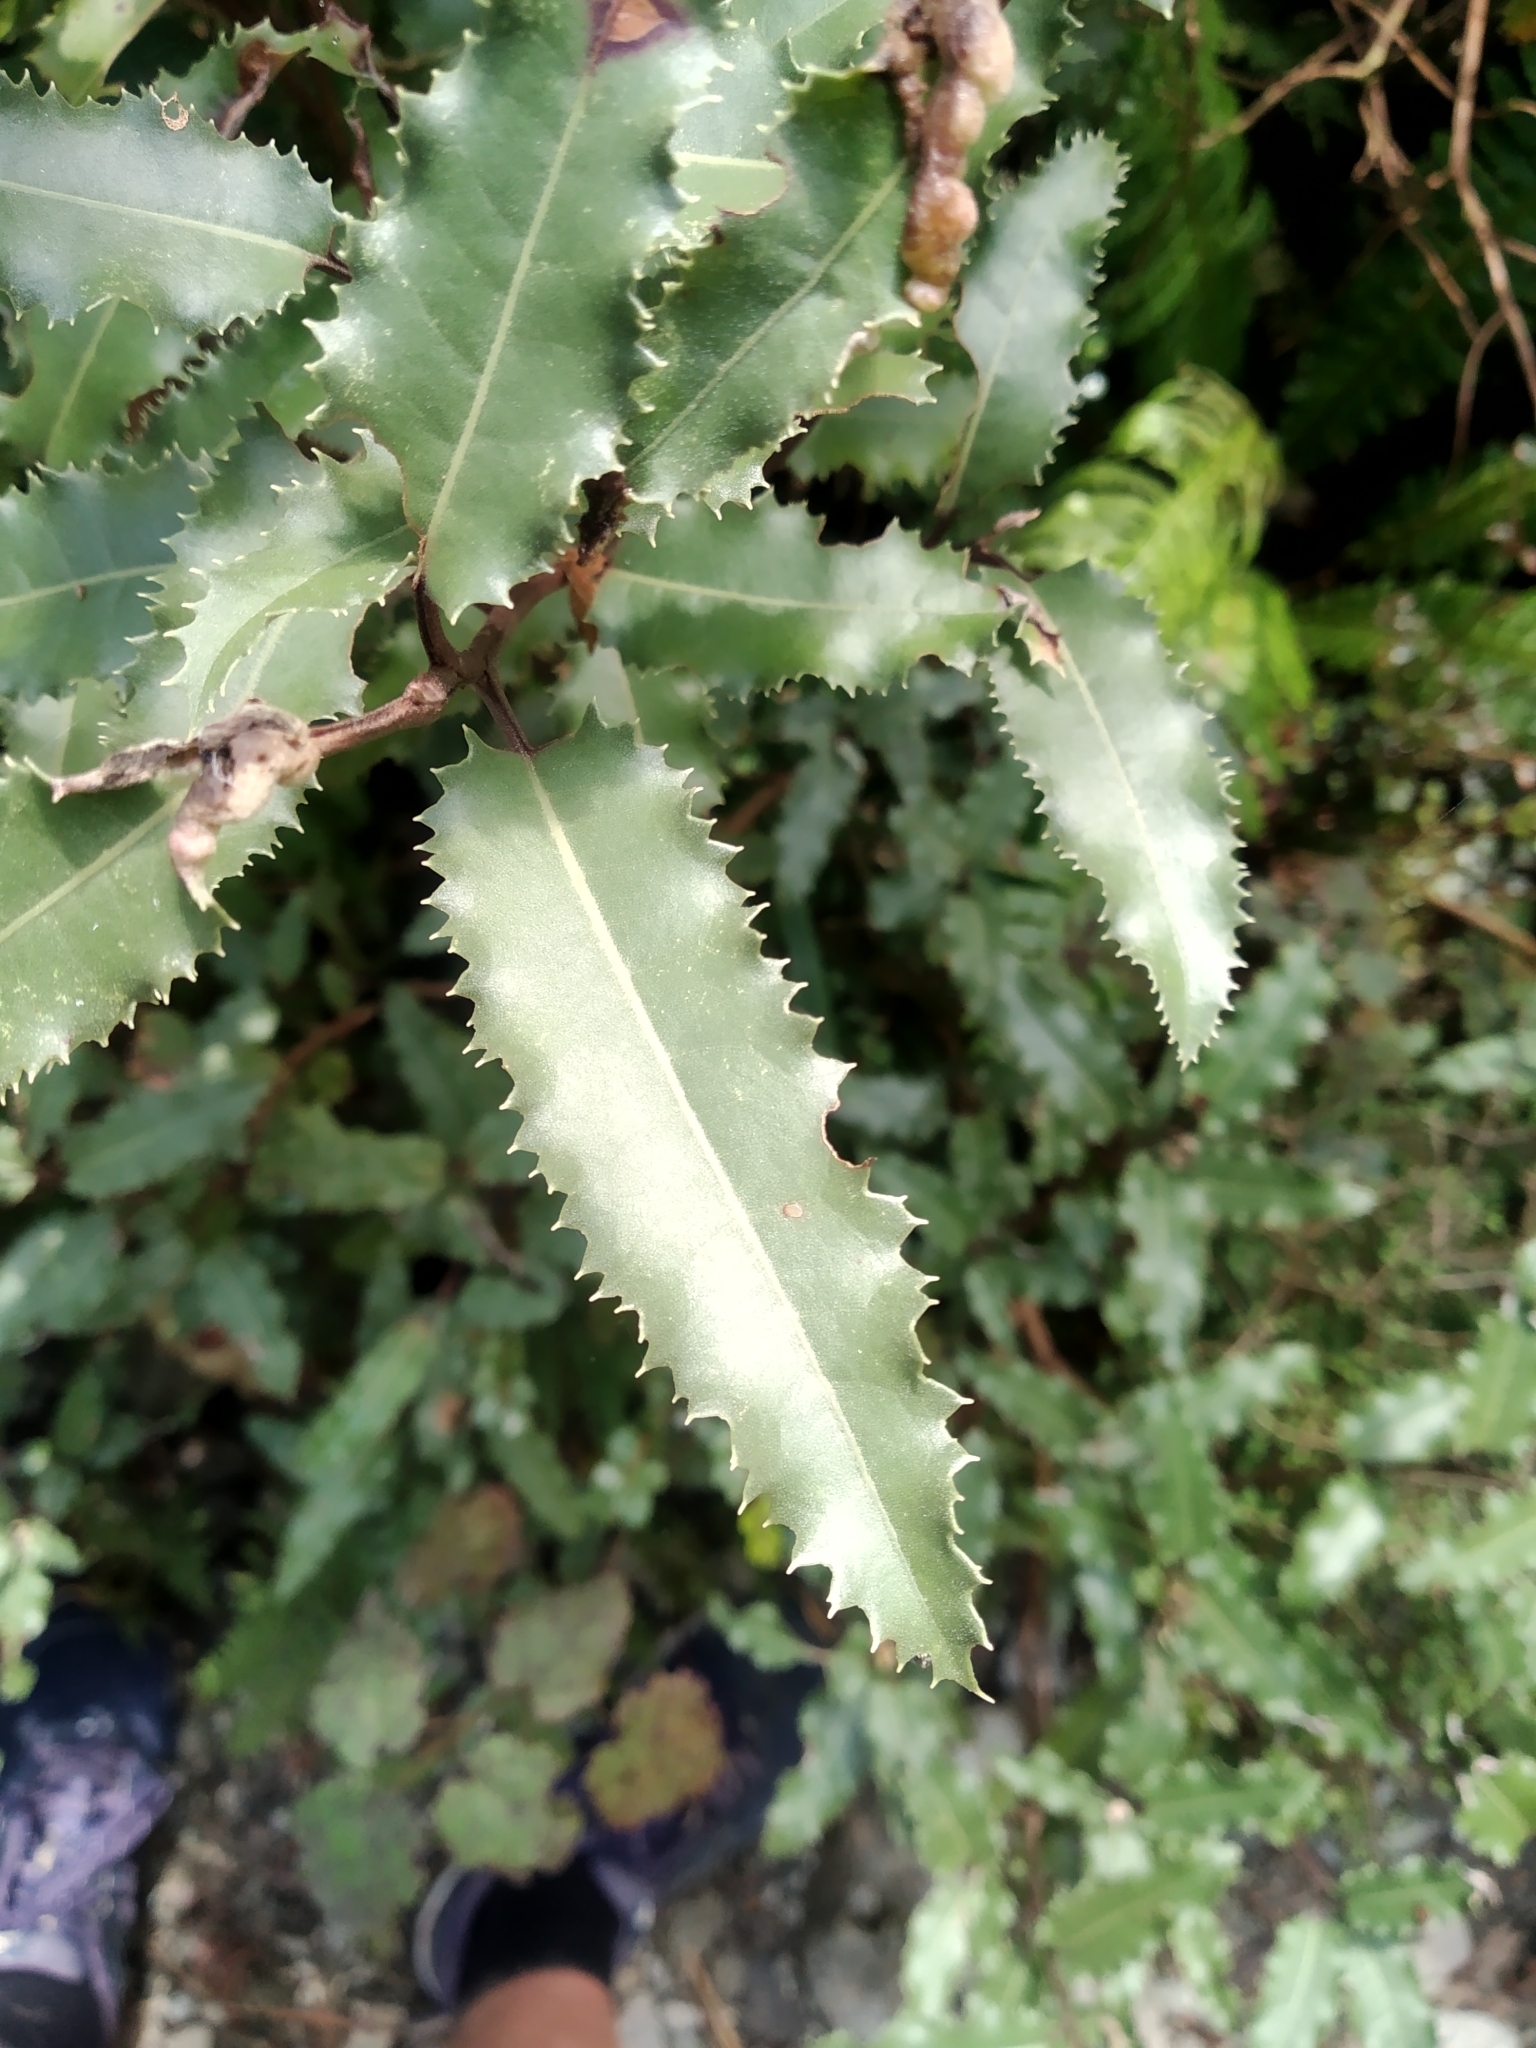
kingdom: Plantae
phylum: Tracheophyta
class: Magnoliopsida
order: Asterales
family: Asteraceae
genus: Olearia
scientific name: Olearia ilicifolia
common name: Maori-holly
